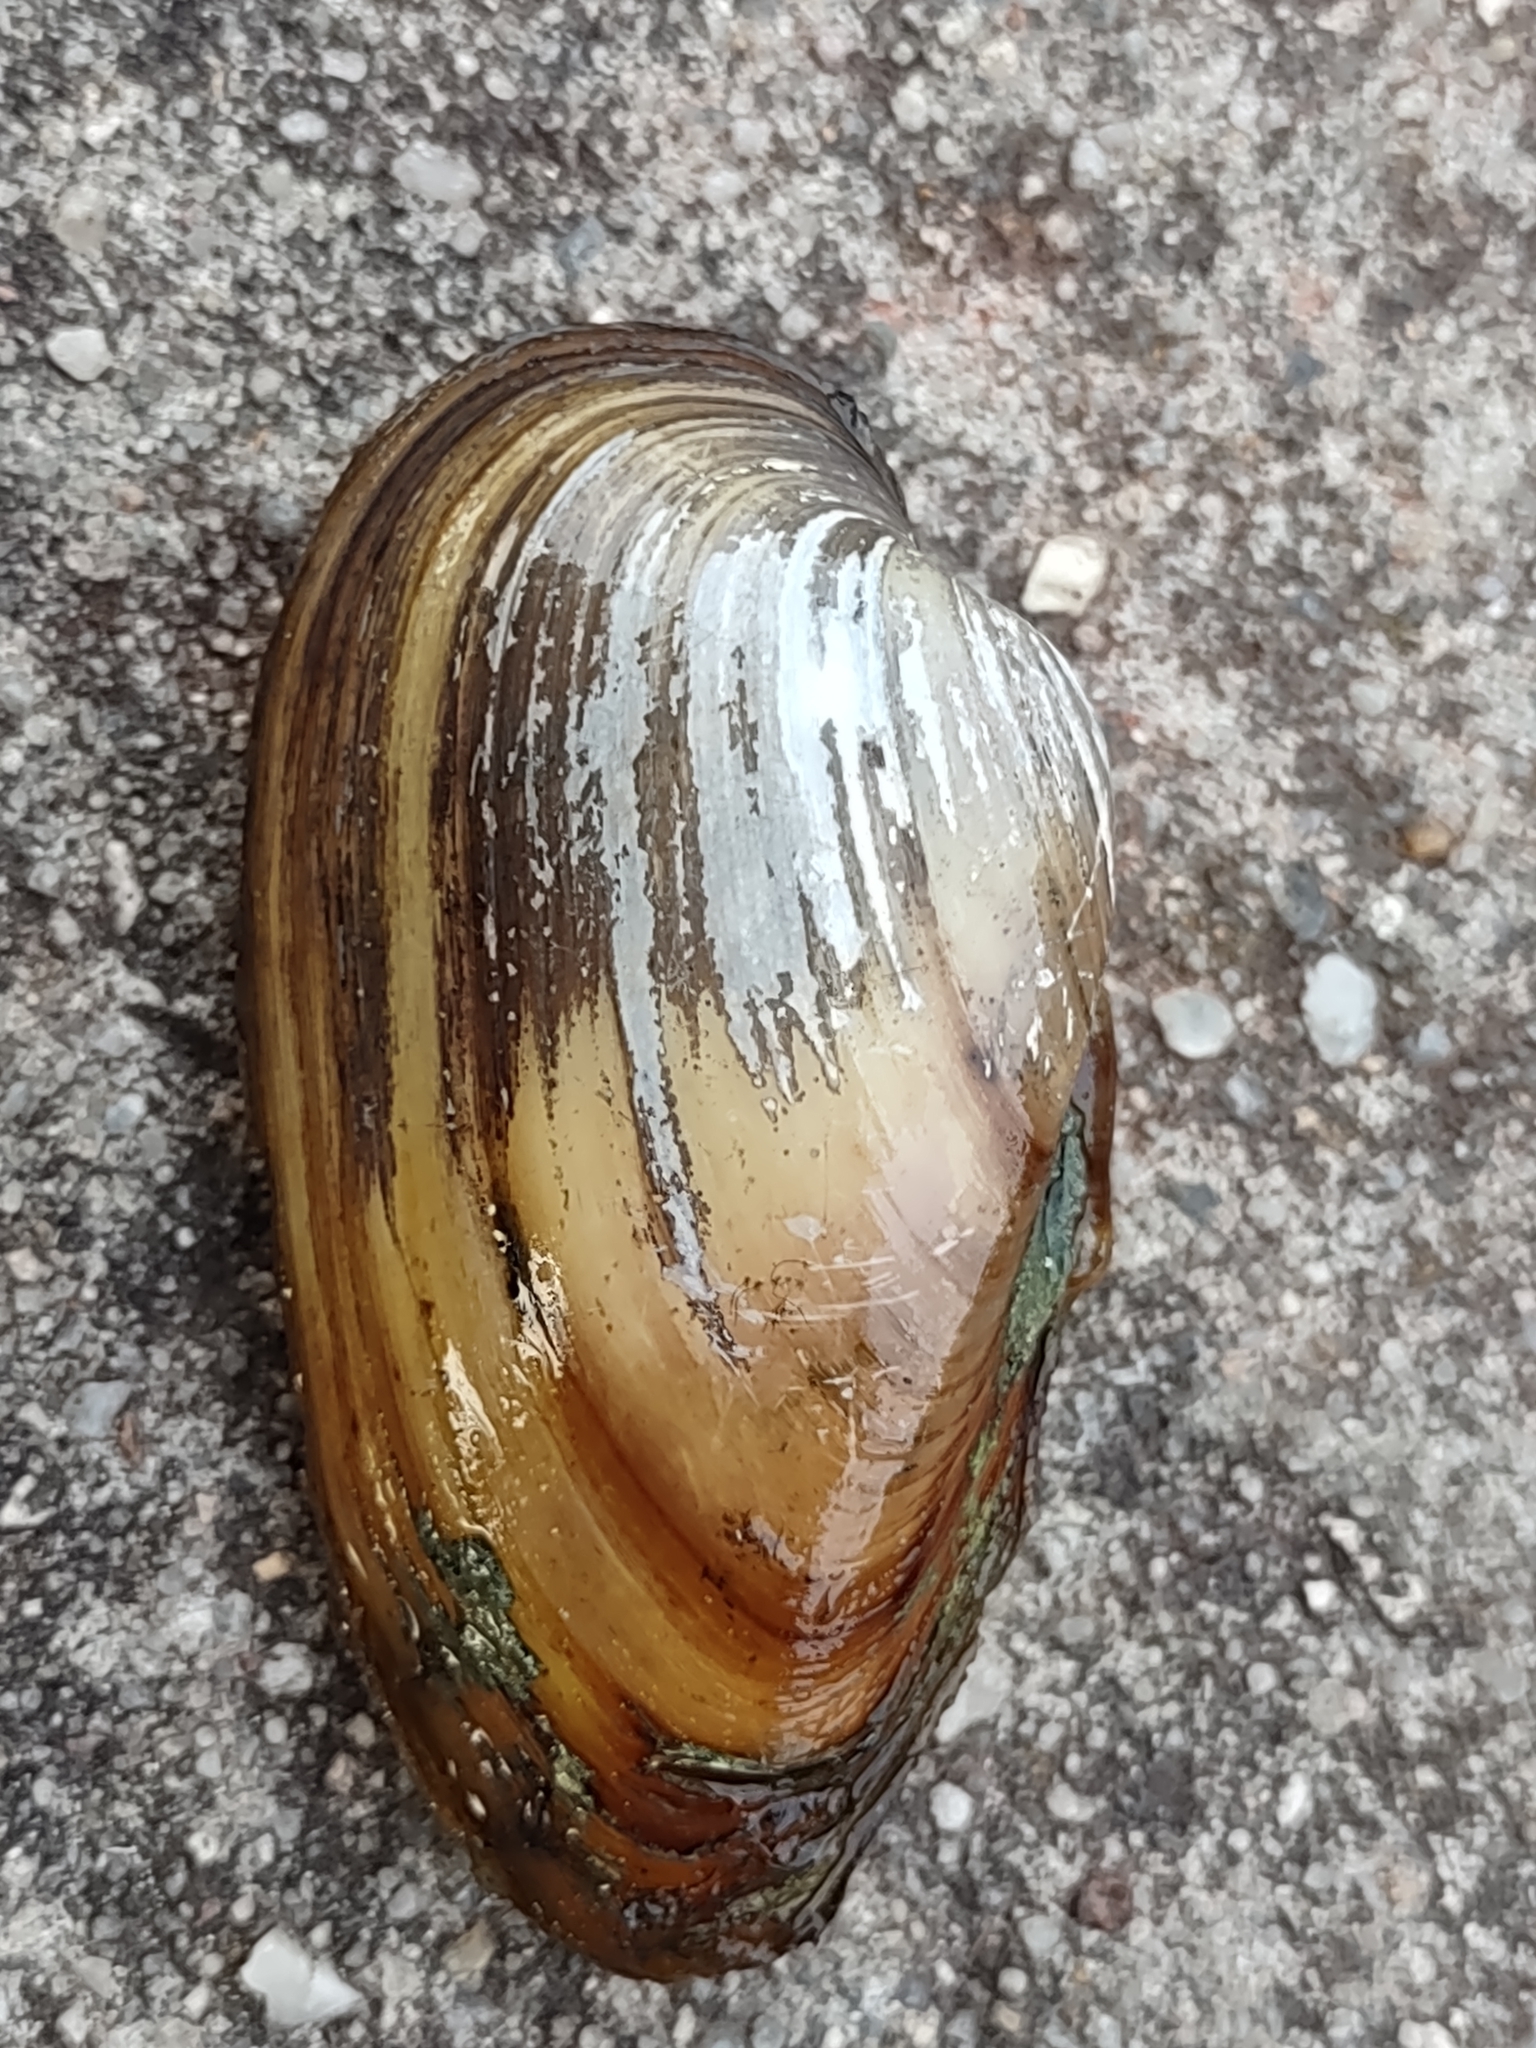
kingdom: Animalia
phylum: Mollusca
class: Bivalvia
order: Unionida
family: Unionidae
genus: Unio
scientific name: Unio tumidus
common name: Swollen river mussel
